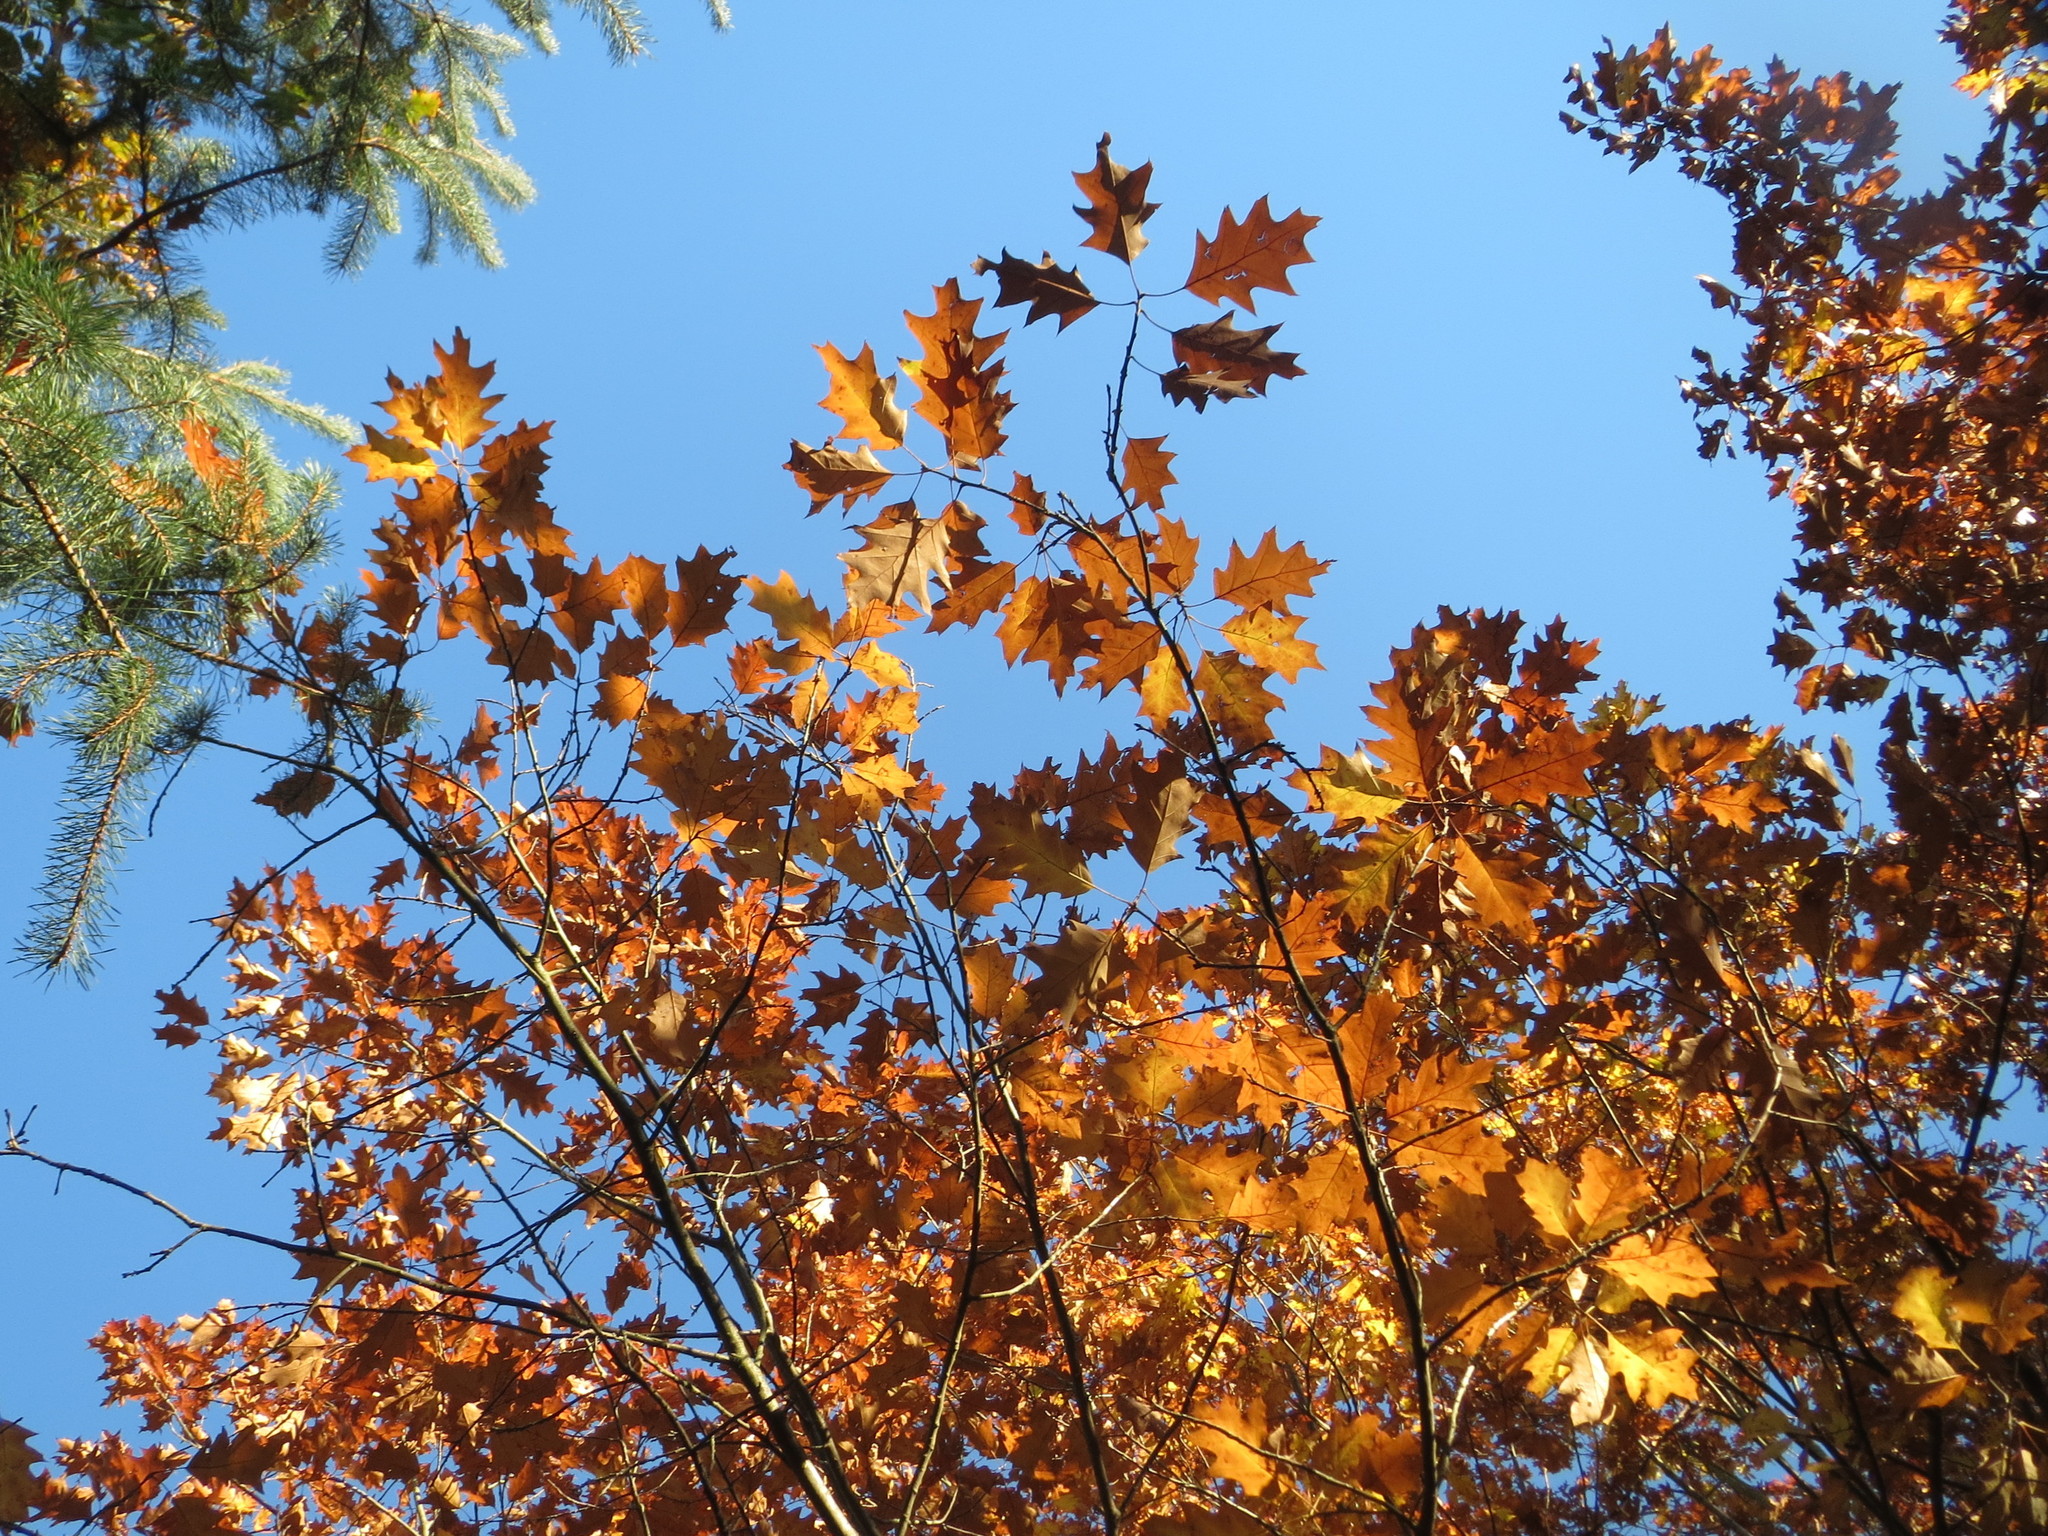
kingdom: Plantae
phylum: Tracheophyta
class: Magnoliopsida
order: Fagales
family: Fagaceae
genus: Quercus
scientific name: Quercus rubra
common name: Red oak
